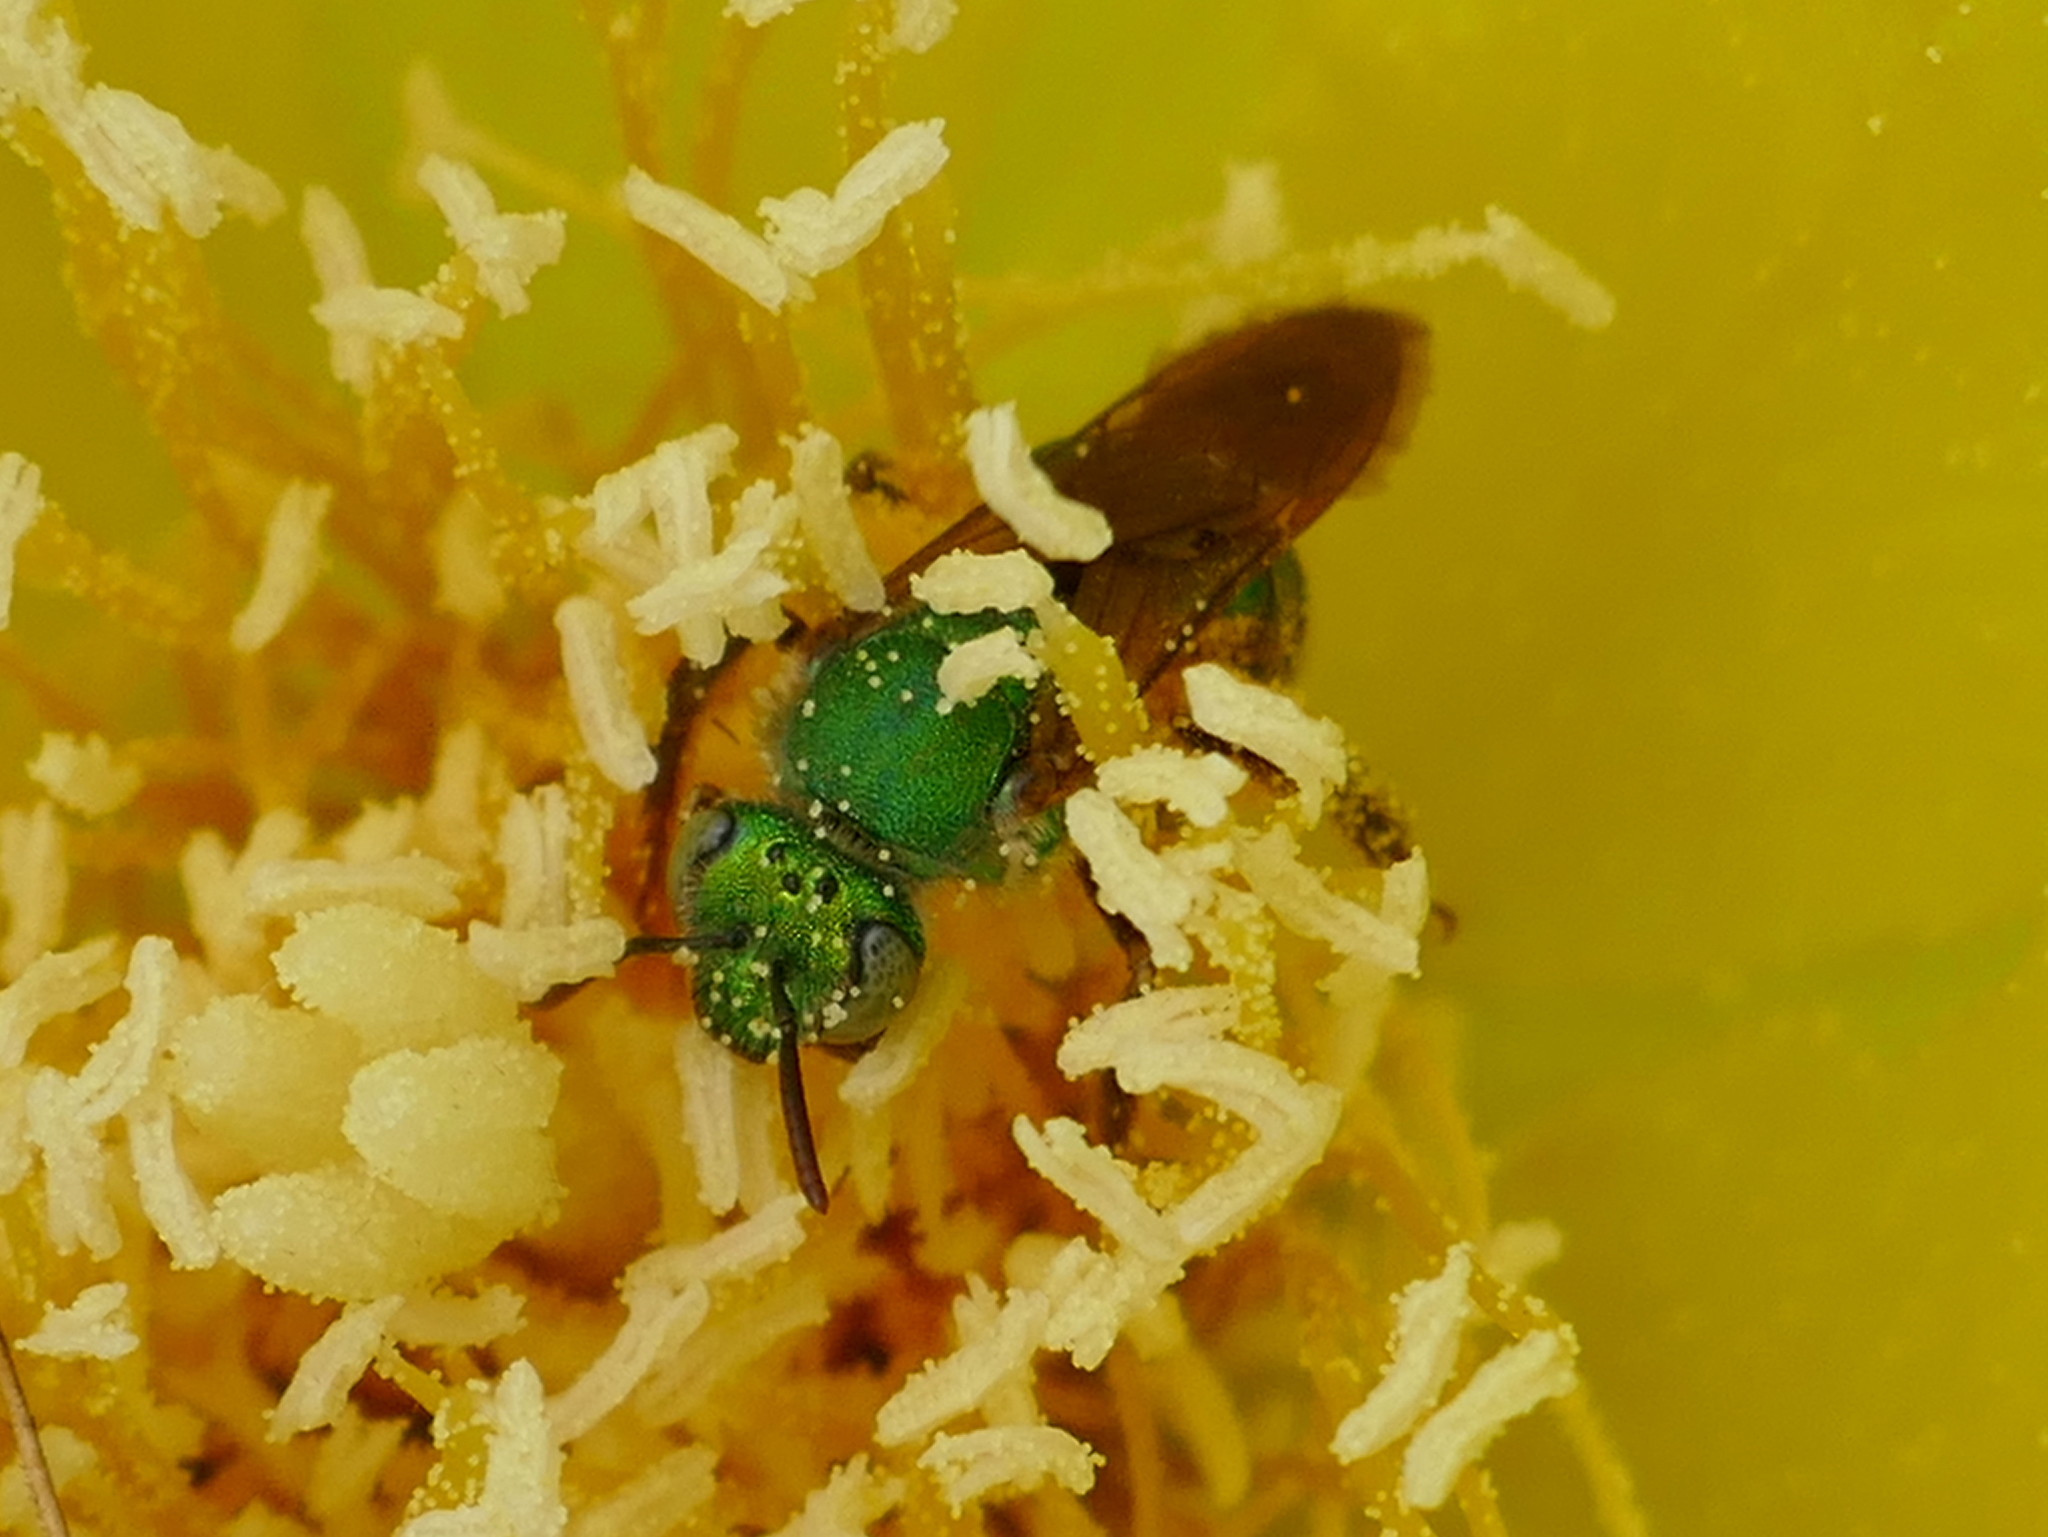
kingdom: Animalia
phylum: Arthropoda
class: Insecta
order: Hymenoptera
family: Halictidae
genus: Agapostemon
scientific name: Agapostemon splendens
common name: Brown-winged striped sweat bee
